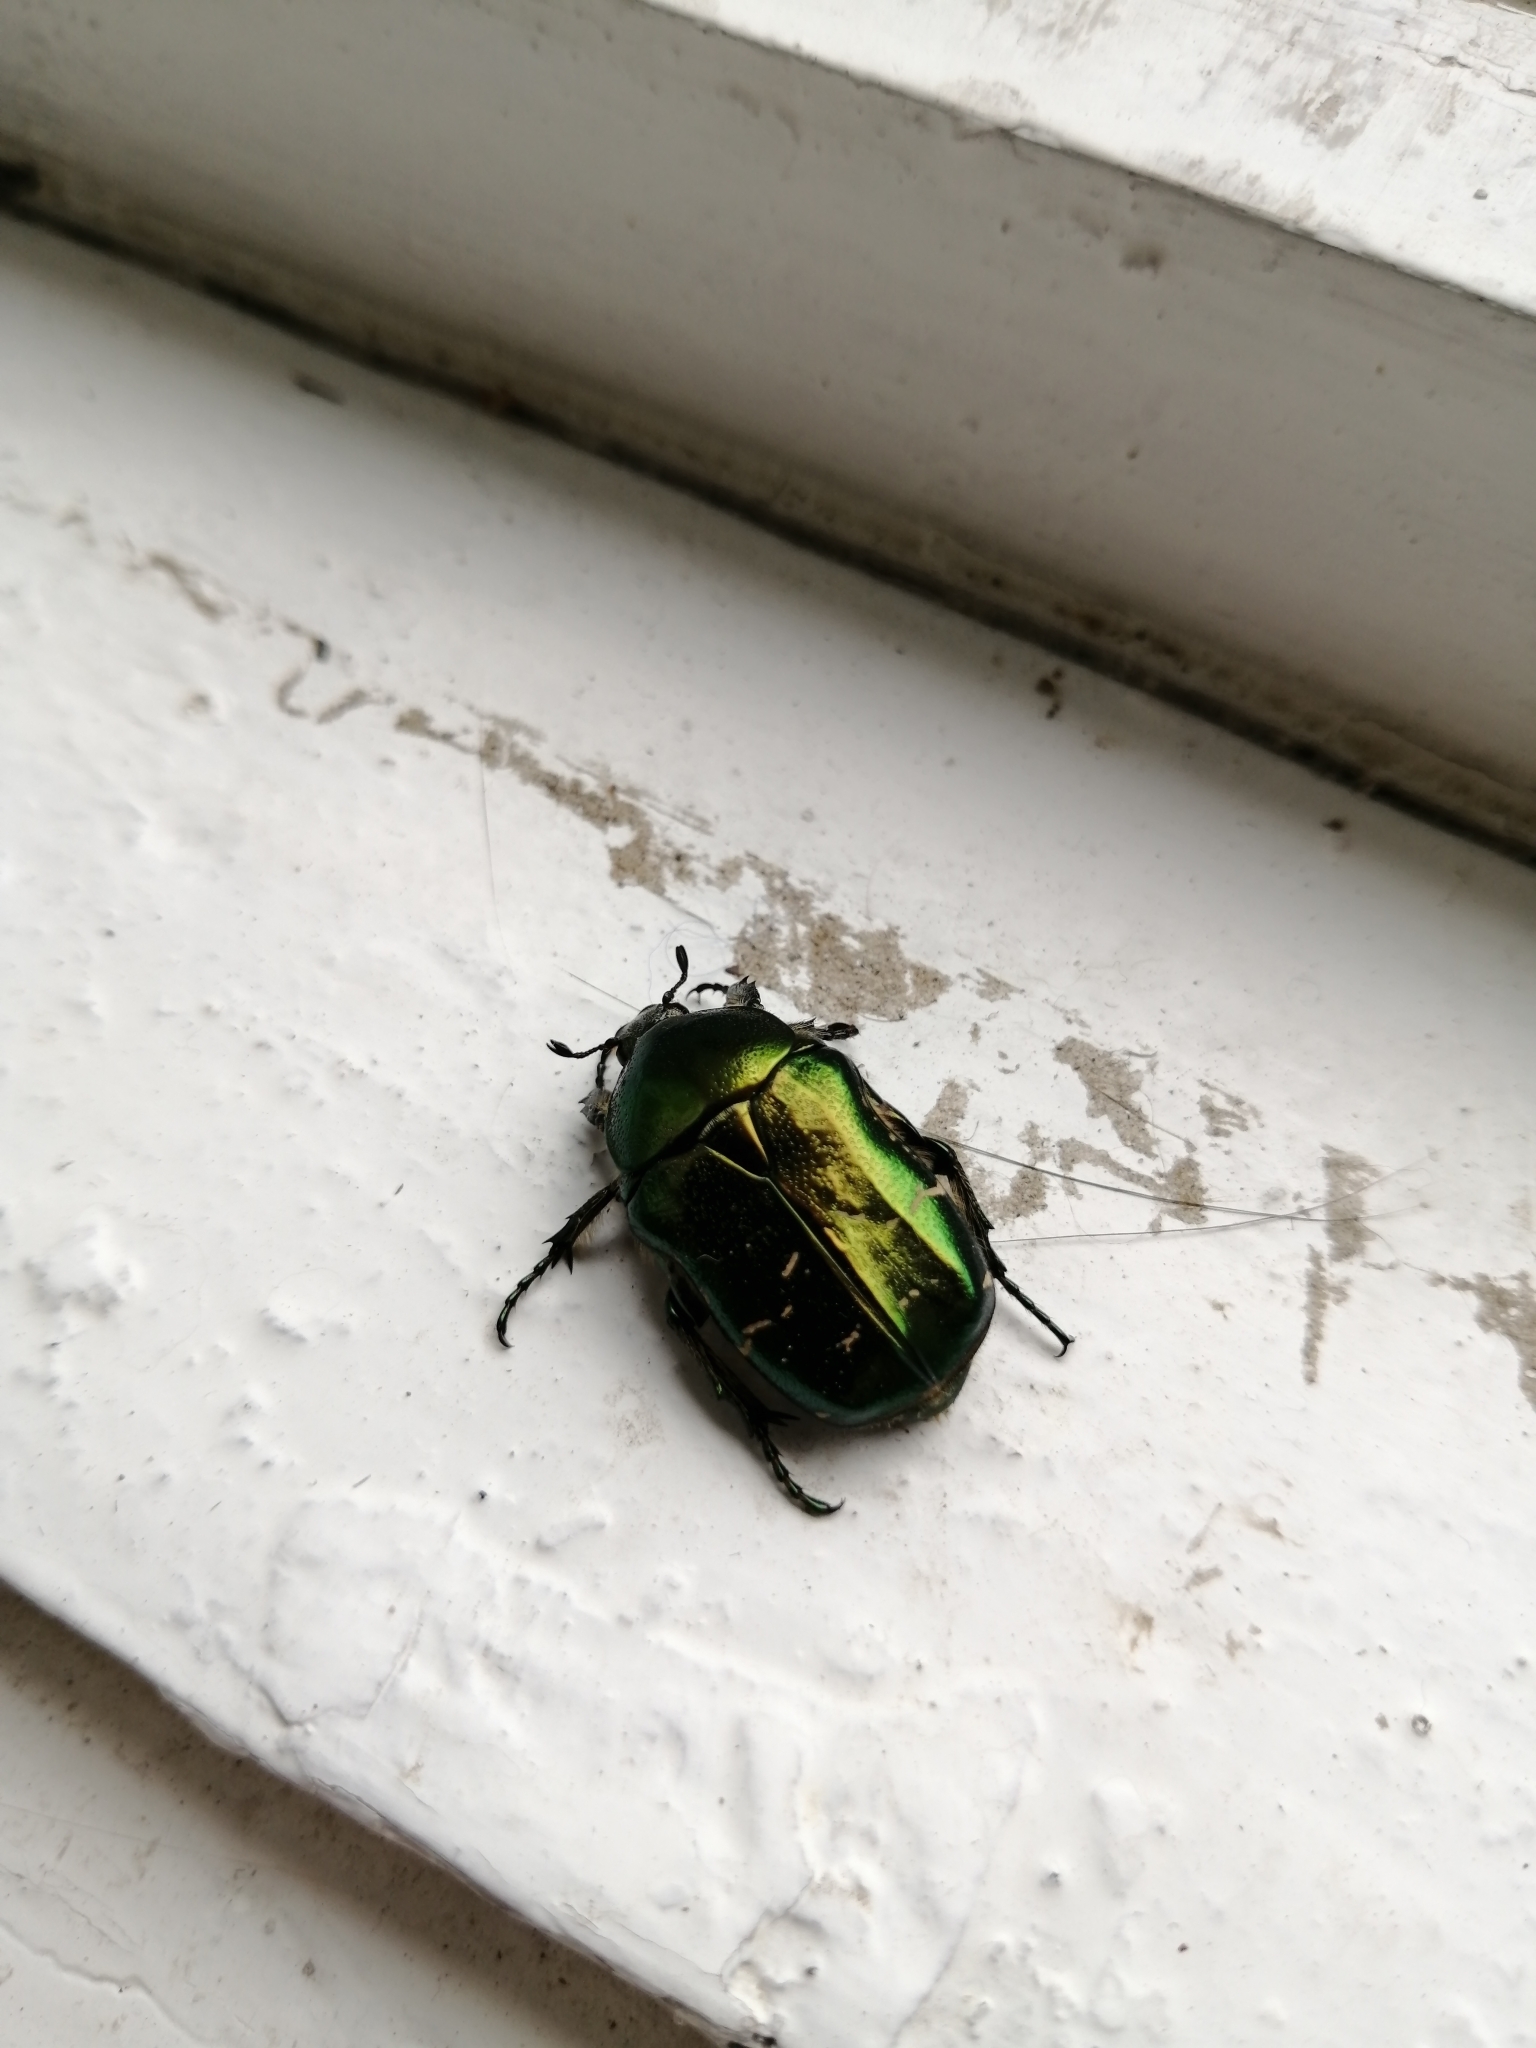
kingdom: Animalia
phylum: Arthropoda
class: Insecta
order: Coleoptera
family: Scarabaeidae
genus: Cetonia
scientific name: Cetonia aurata
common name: Rose chafer
